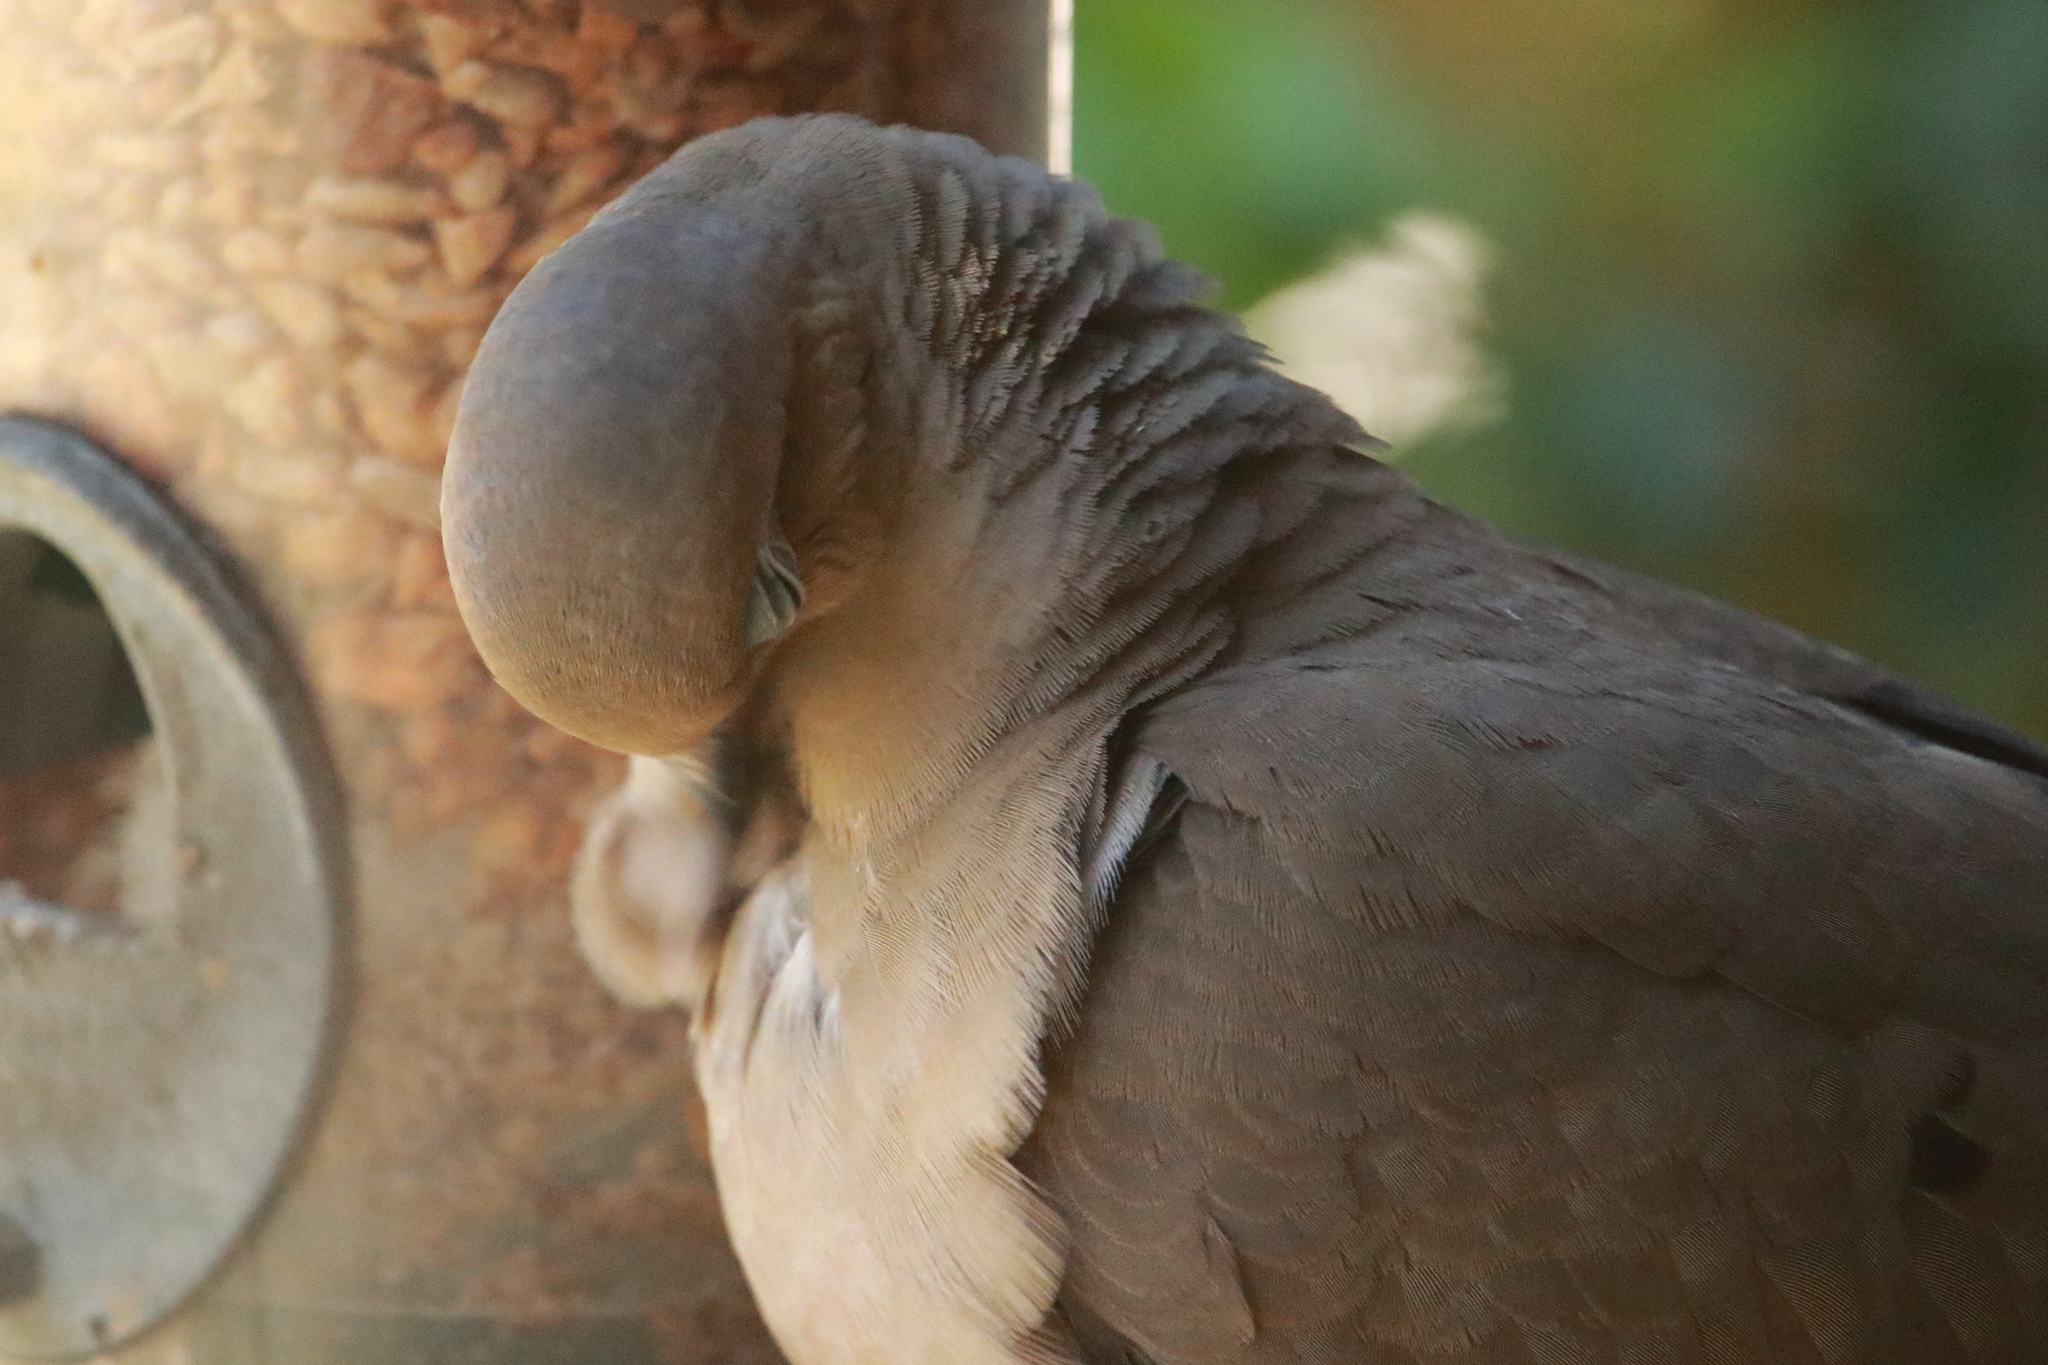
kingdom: Animalia
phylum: Chordata
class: Aves
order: Columbiformes
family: Columbidae
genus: Zenaida
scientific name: Zenaida macroura
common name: Mourning dove
